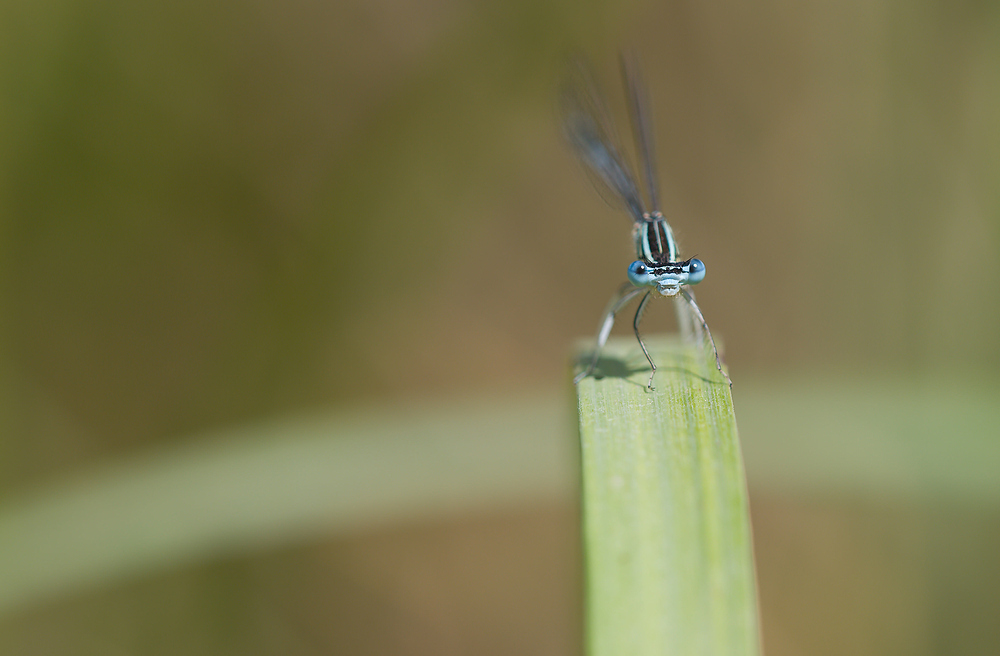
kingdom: Animalia
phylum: Arthropoda
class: Insecta
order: Odonata
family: Platycnemididae
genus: Platycnemis
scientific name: Platycnemis pennipes
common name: White-legged damselfly
